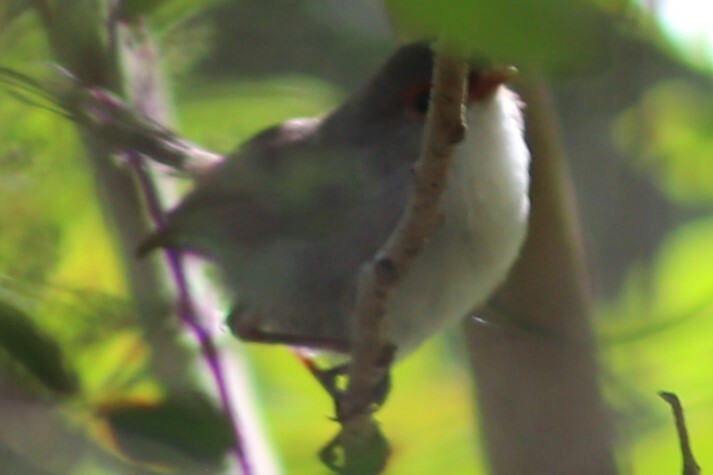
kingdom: Animalia
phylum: Chordata
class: Aves
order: Passeriformes
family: Maluridae
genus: Malurus
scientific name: Malurus cyaneus
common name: Superb fairywren
